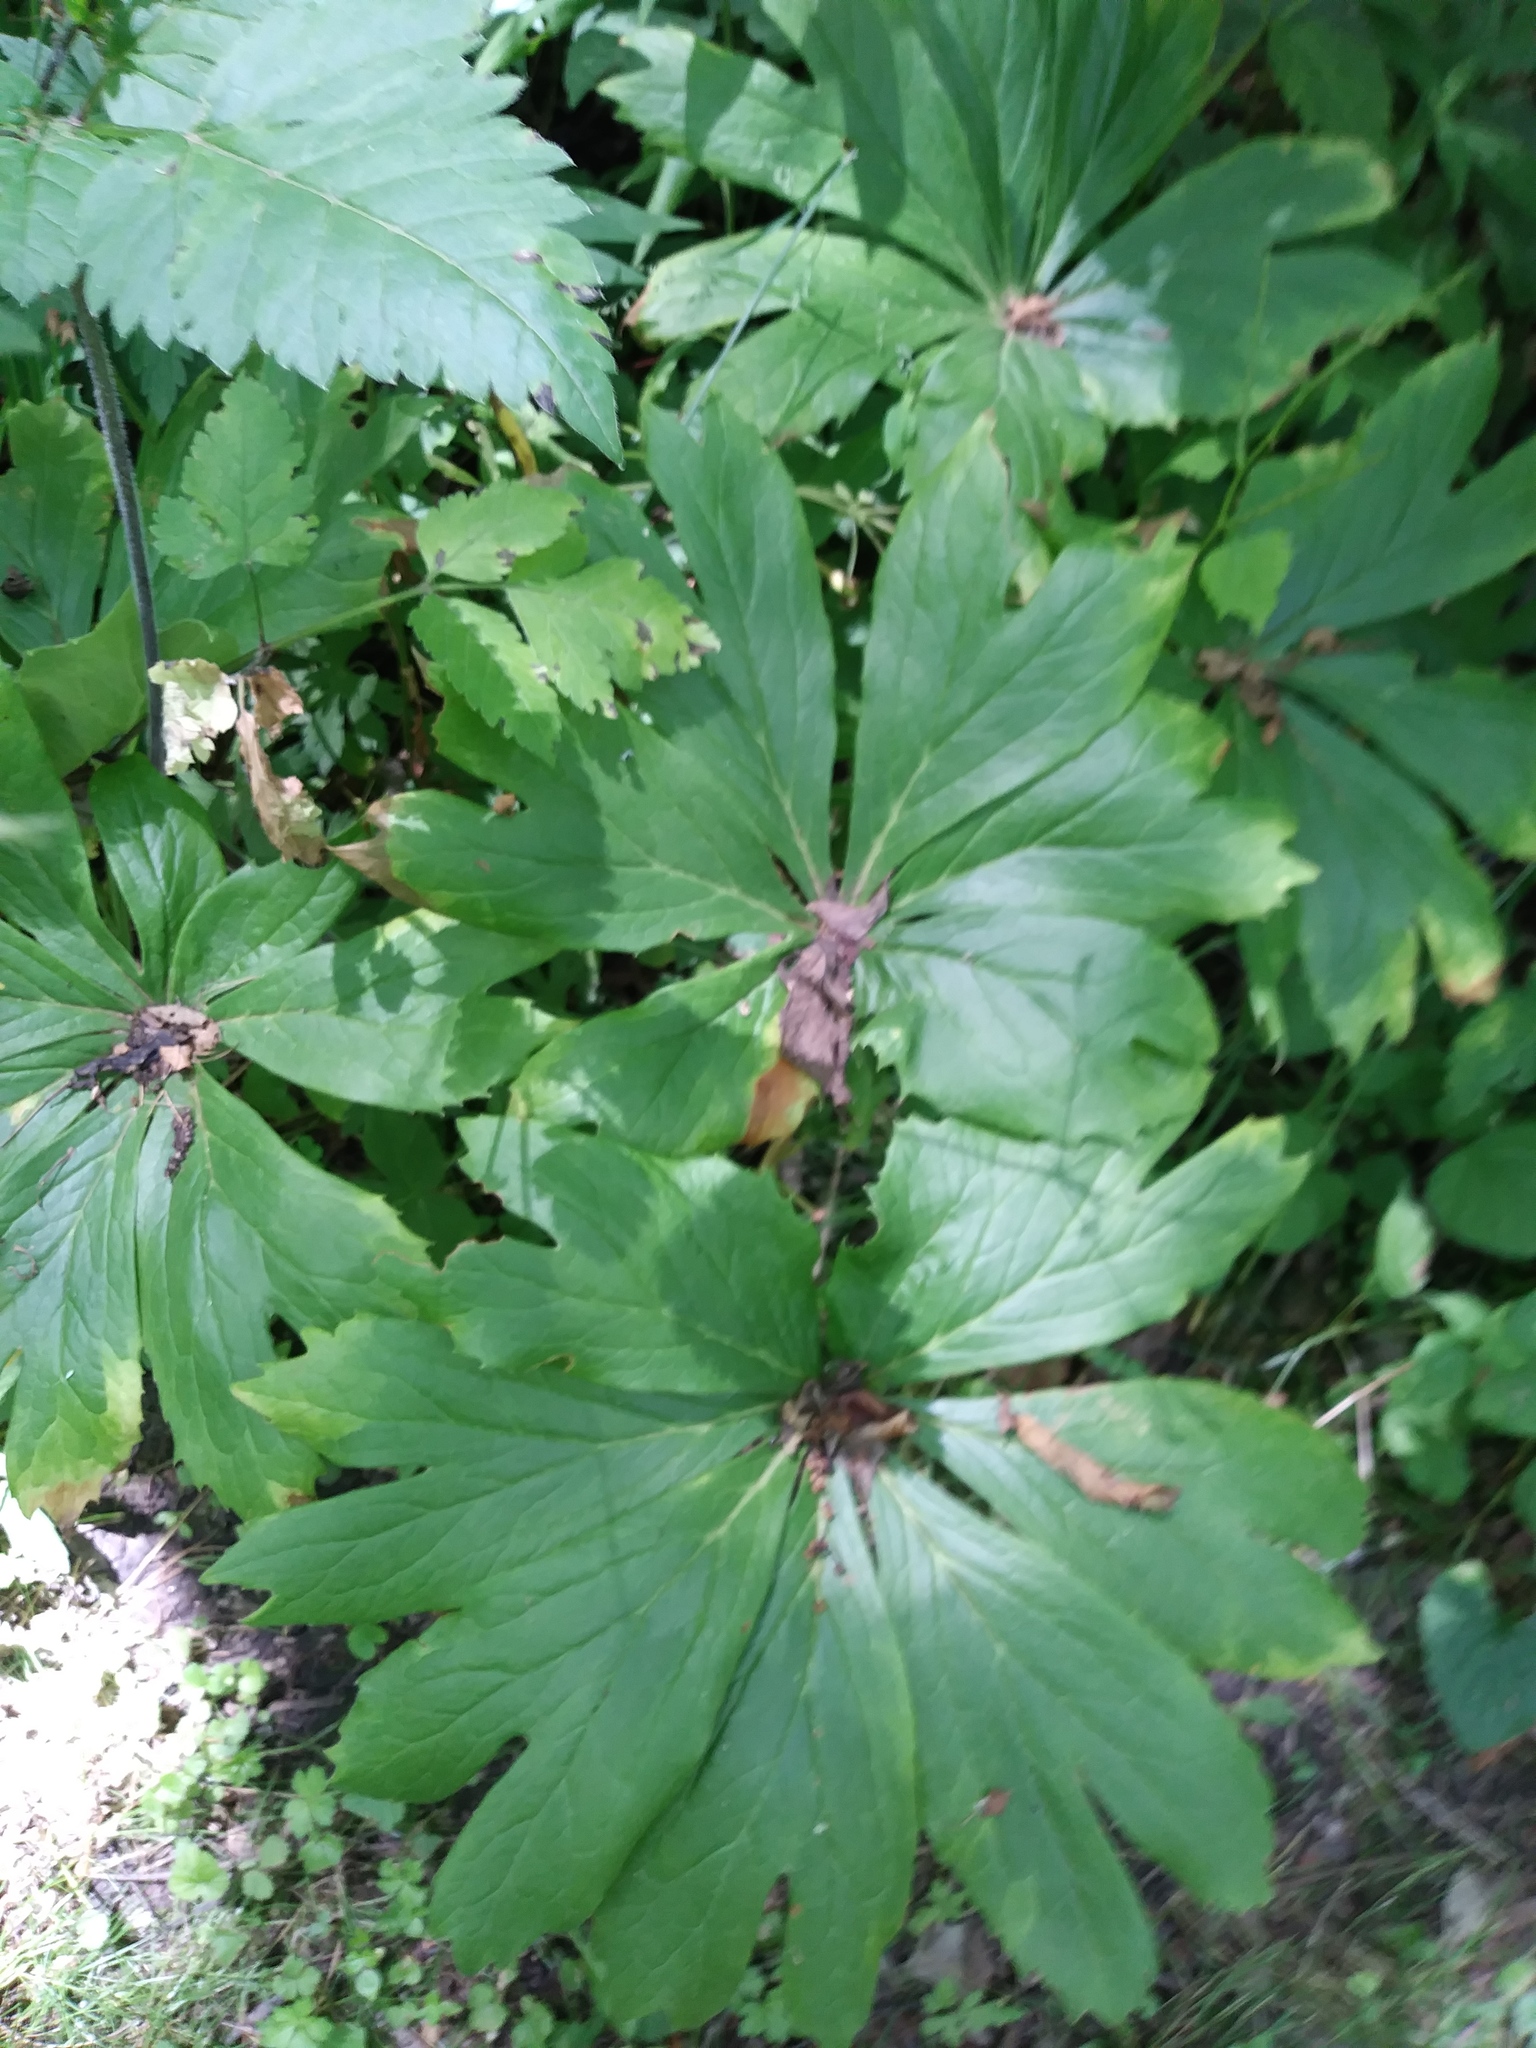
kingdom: Plantae
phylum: Tracheophyta
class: Magnoliopsida
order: Ranunculales
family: Berberidaceae
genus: Podophyllum
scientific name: Podophyllum peltatum
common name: Wild mandrake
